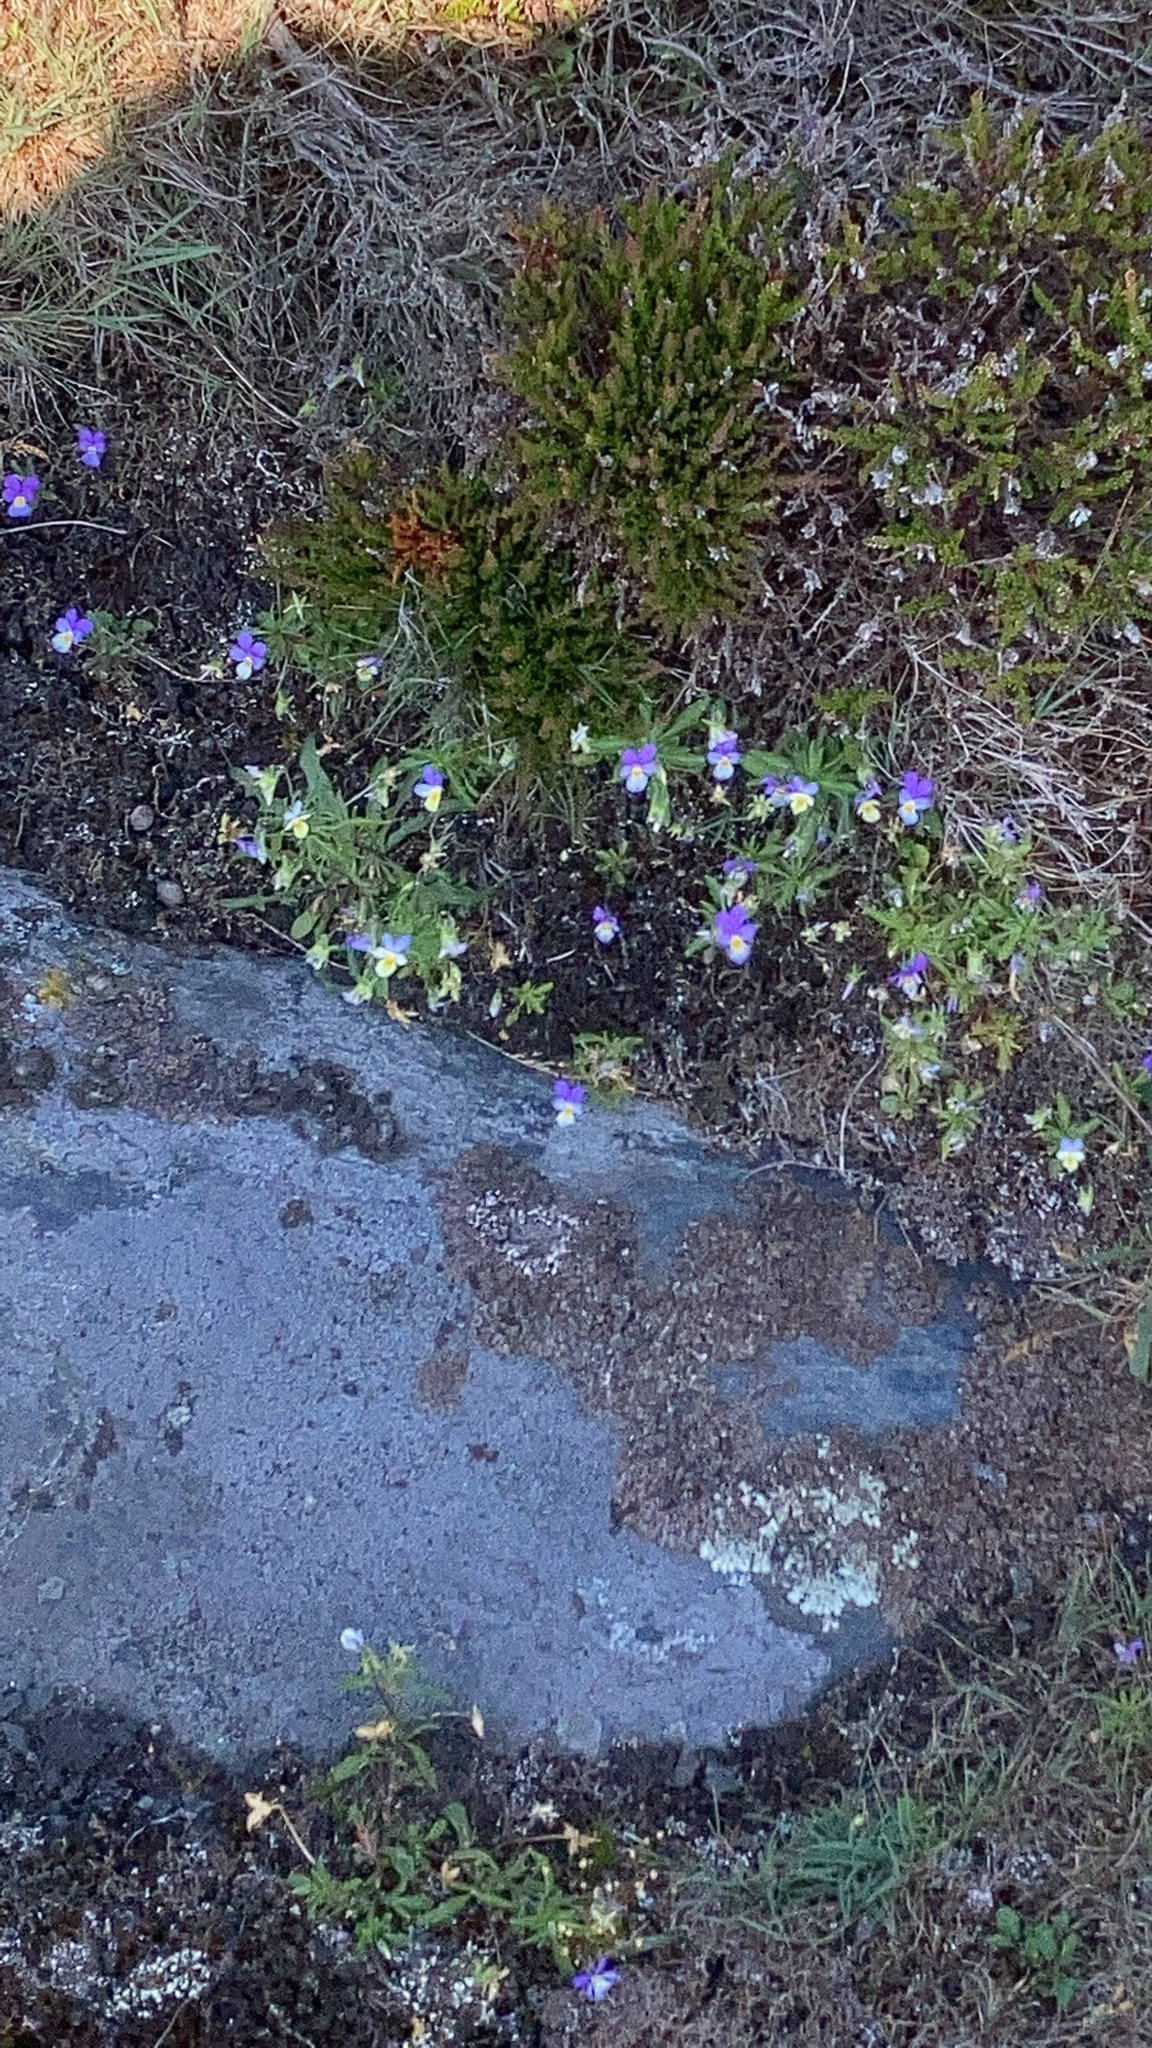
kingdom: Plantae
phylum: Tracheophyta
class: Magnoliopsida
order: Malpighiales
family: Violaceae
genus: Viola
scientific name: Viola tricolor
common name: Pansy
